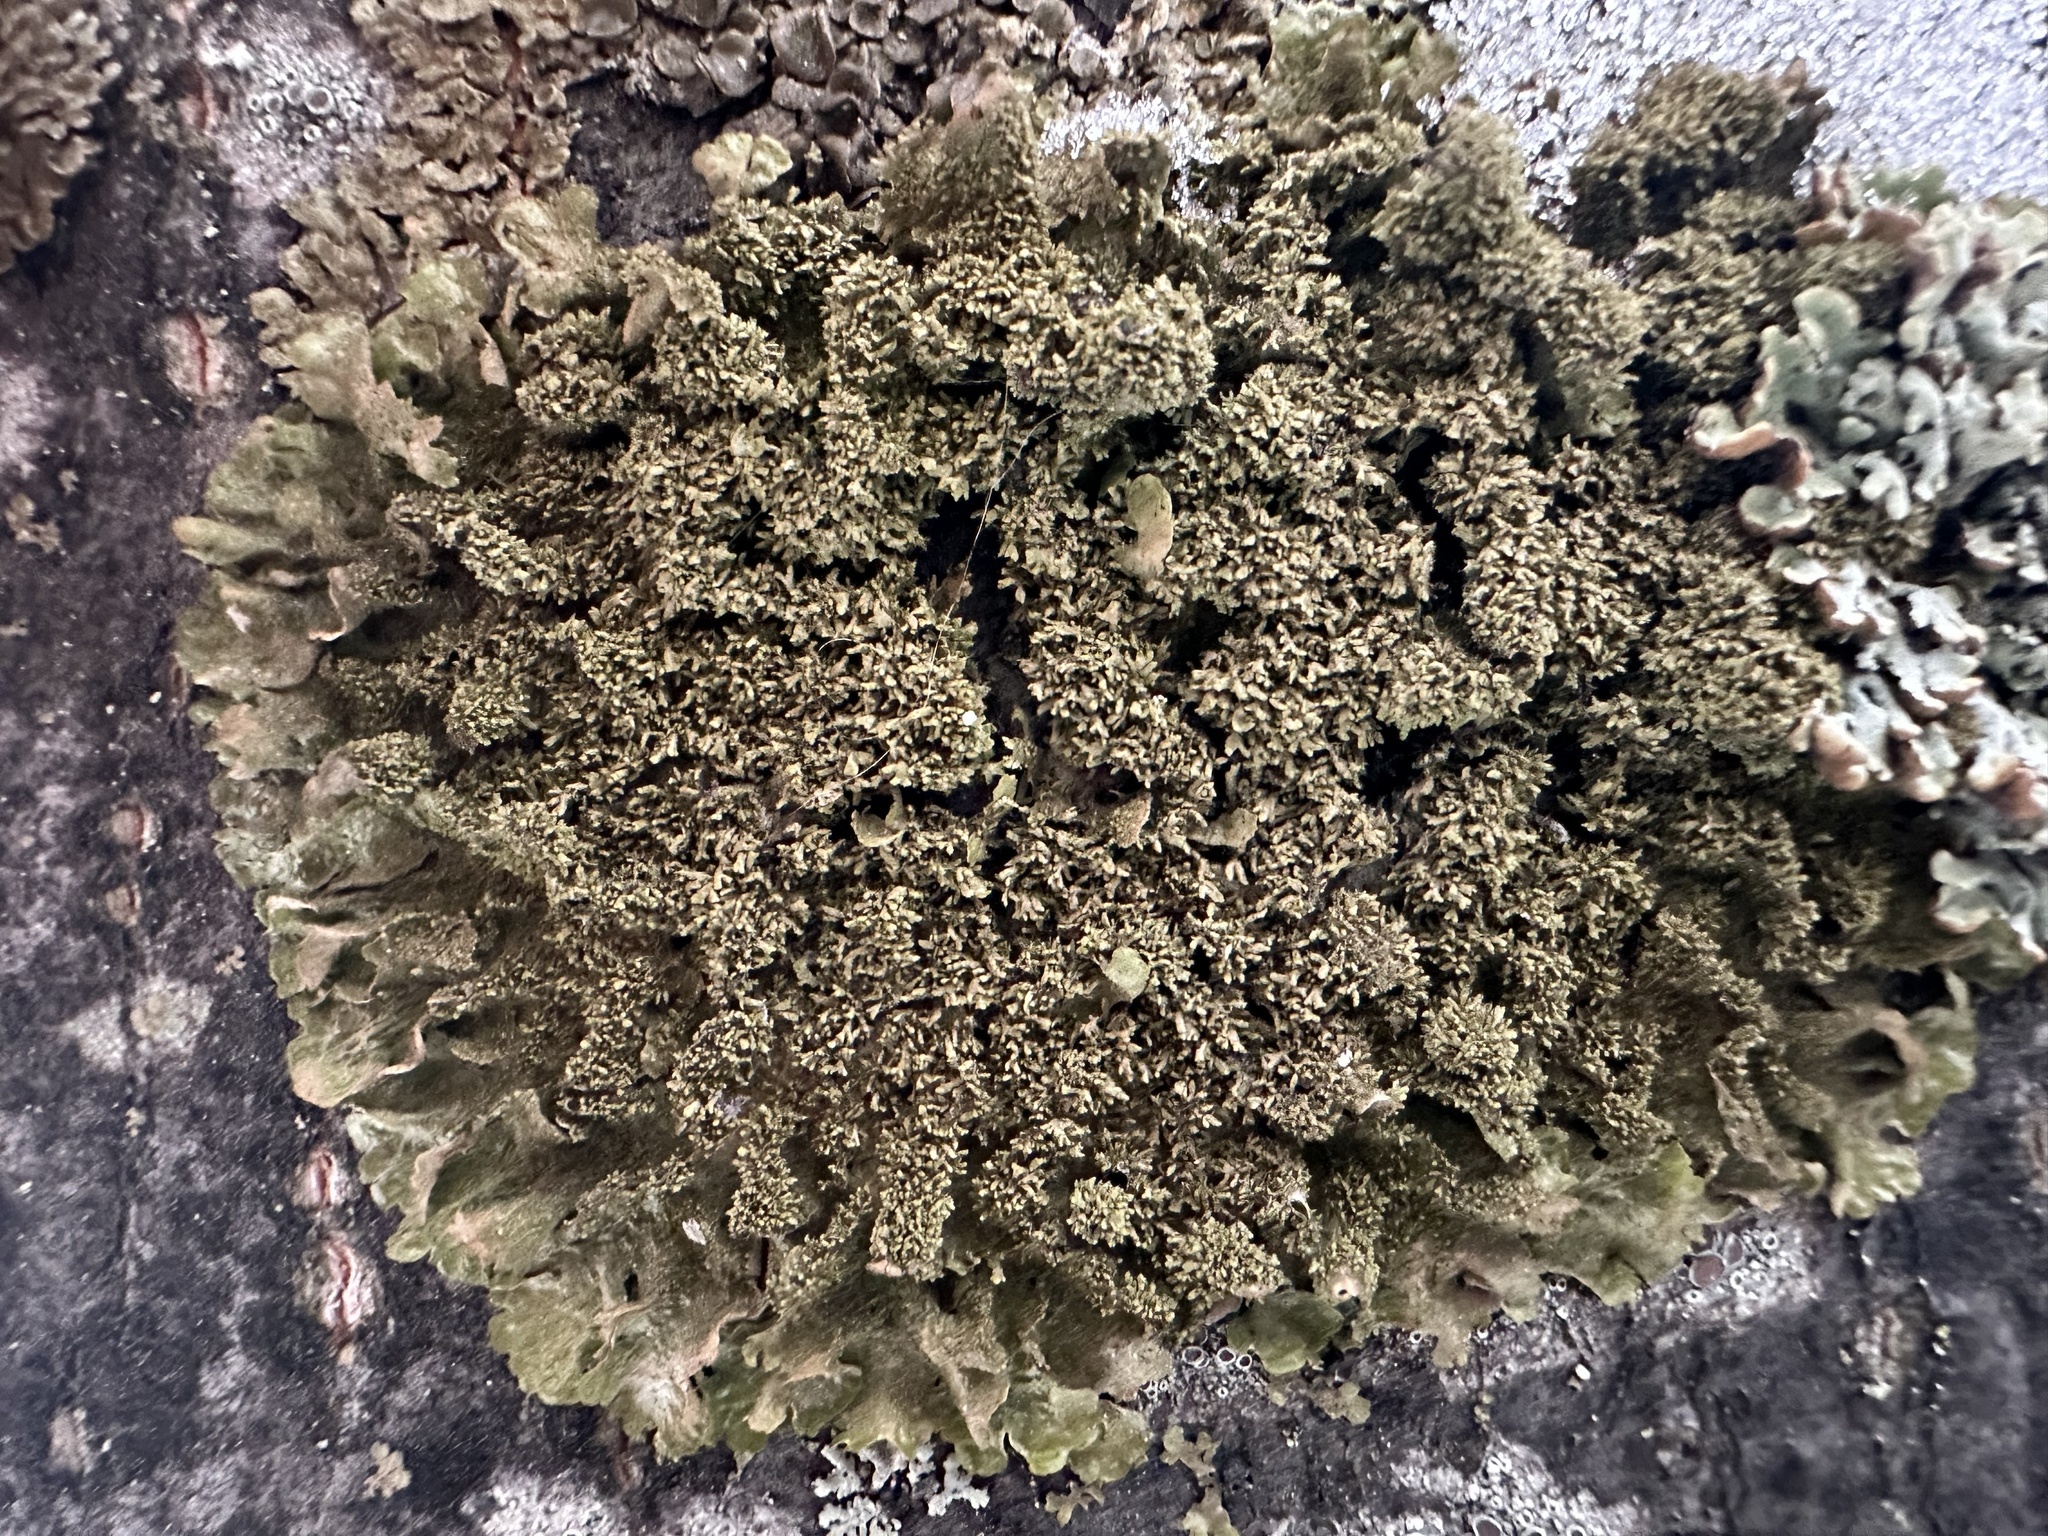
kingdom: Fungi
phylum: Ascomycota
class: Lecanoromycetes
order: Lecanorales
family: Parmeliaceae
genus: Melanohalea
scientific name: Melanohalea exasperatula
